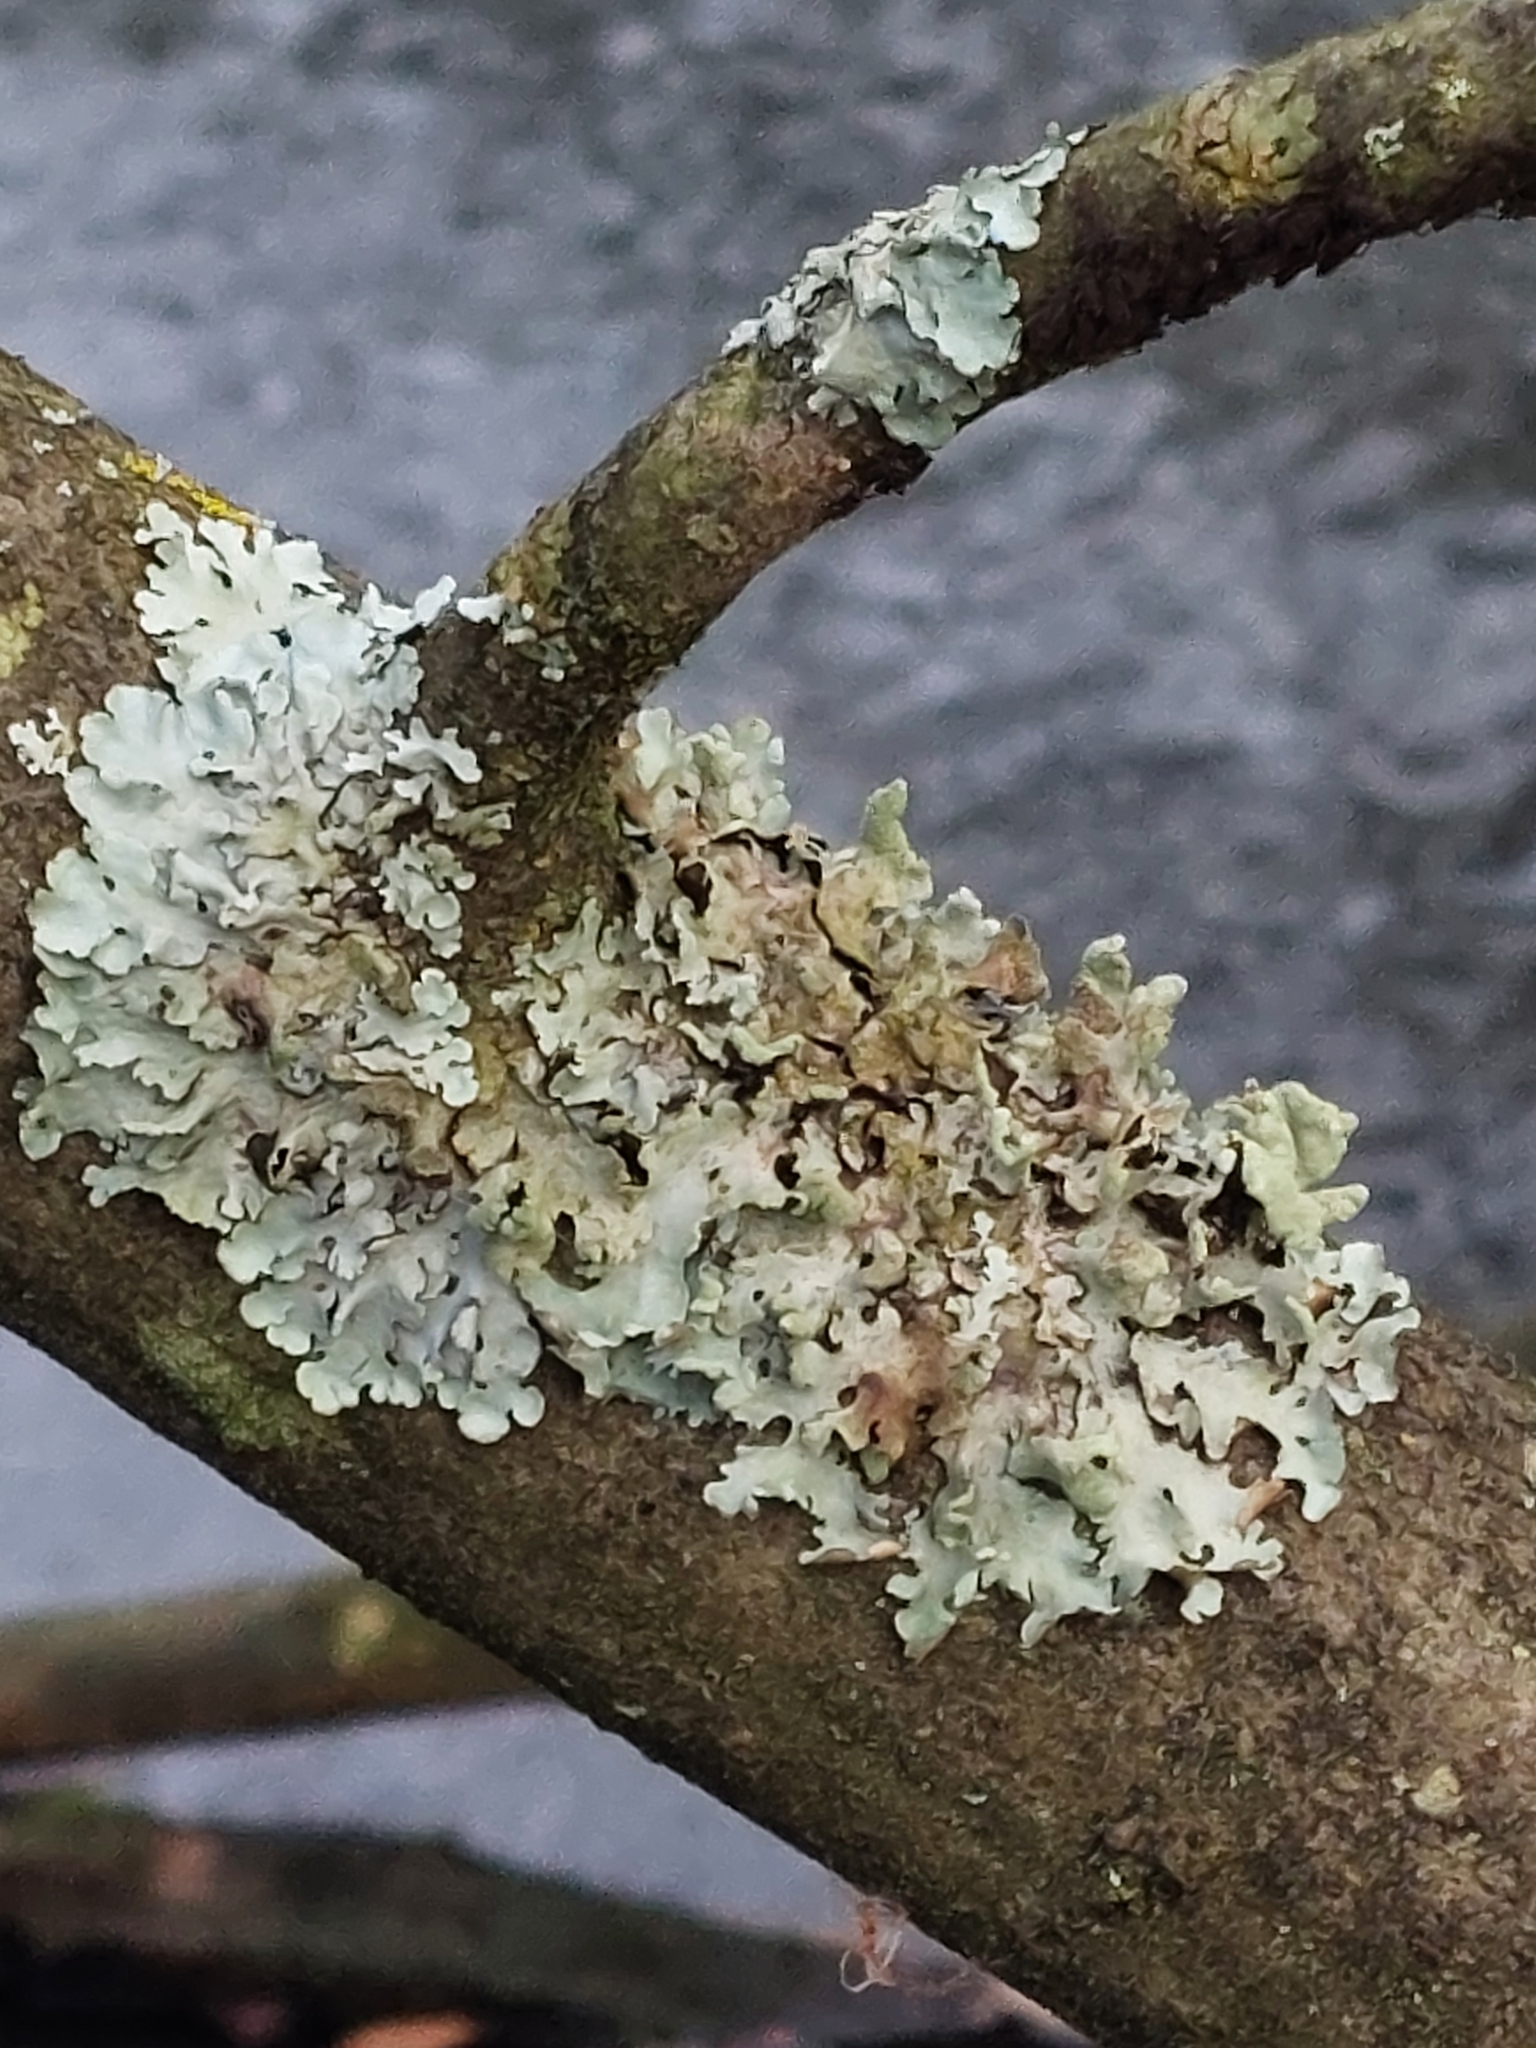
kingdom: Fungi
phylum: Ascomycota
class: Lecanoromycetes
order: Lecanorales
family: Parmeliaceae
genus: Parmelia
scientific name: Parmelia sulcata
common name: Netted shield lichen
